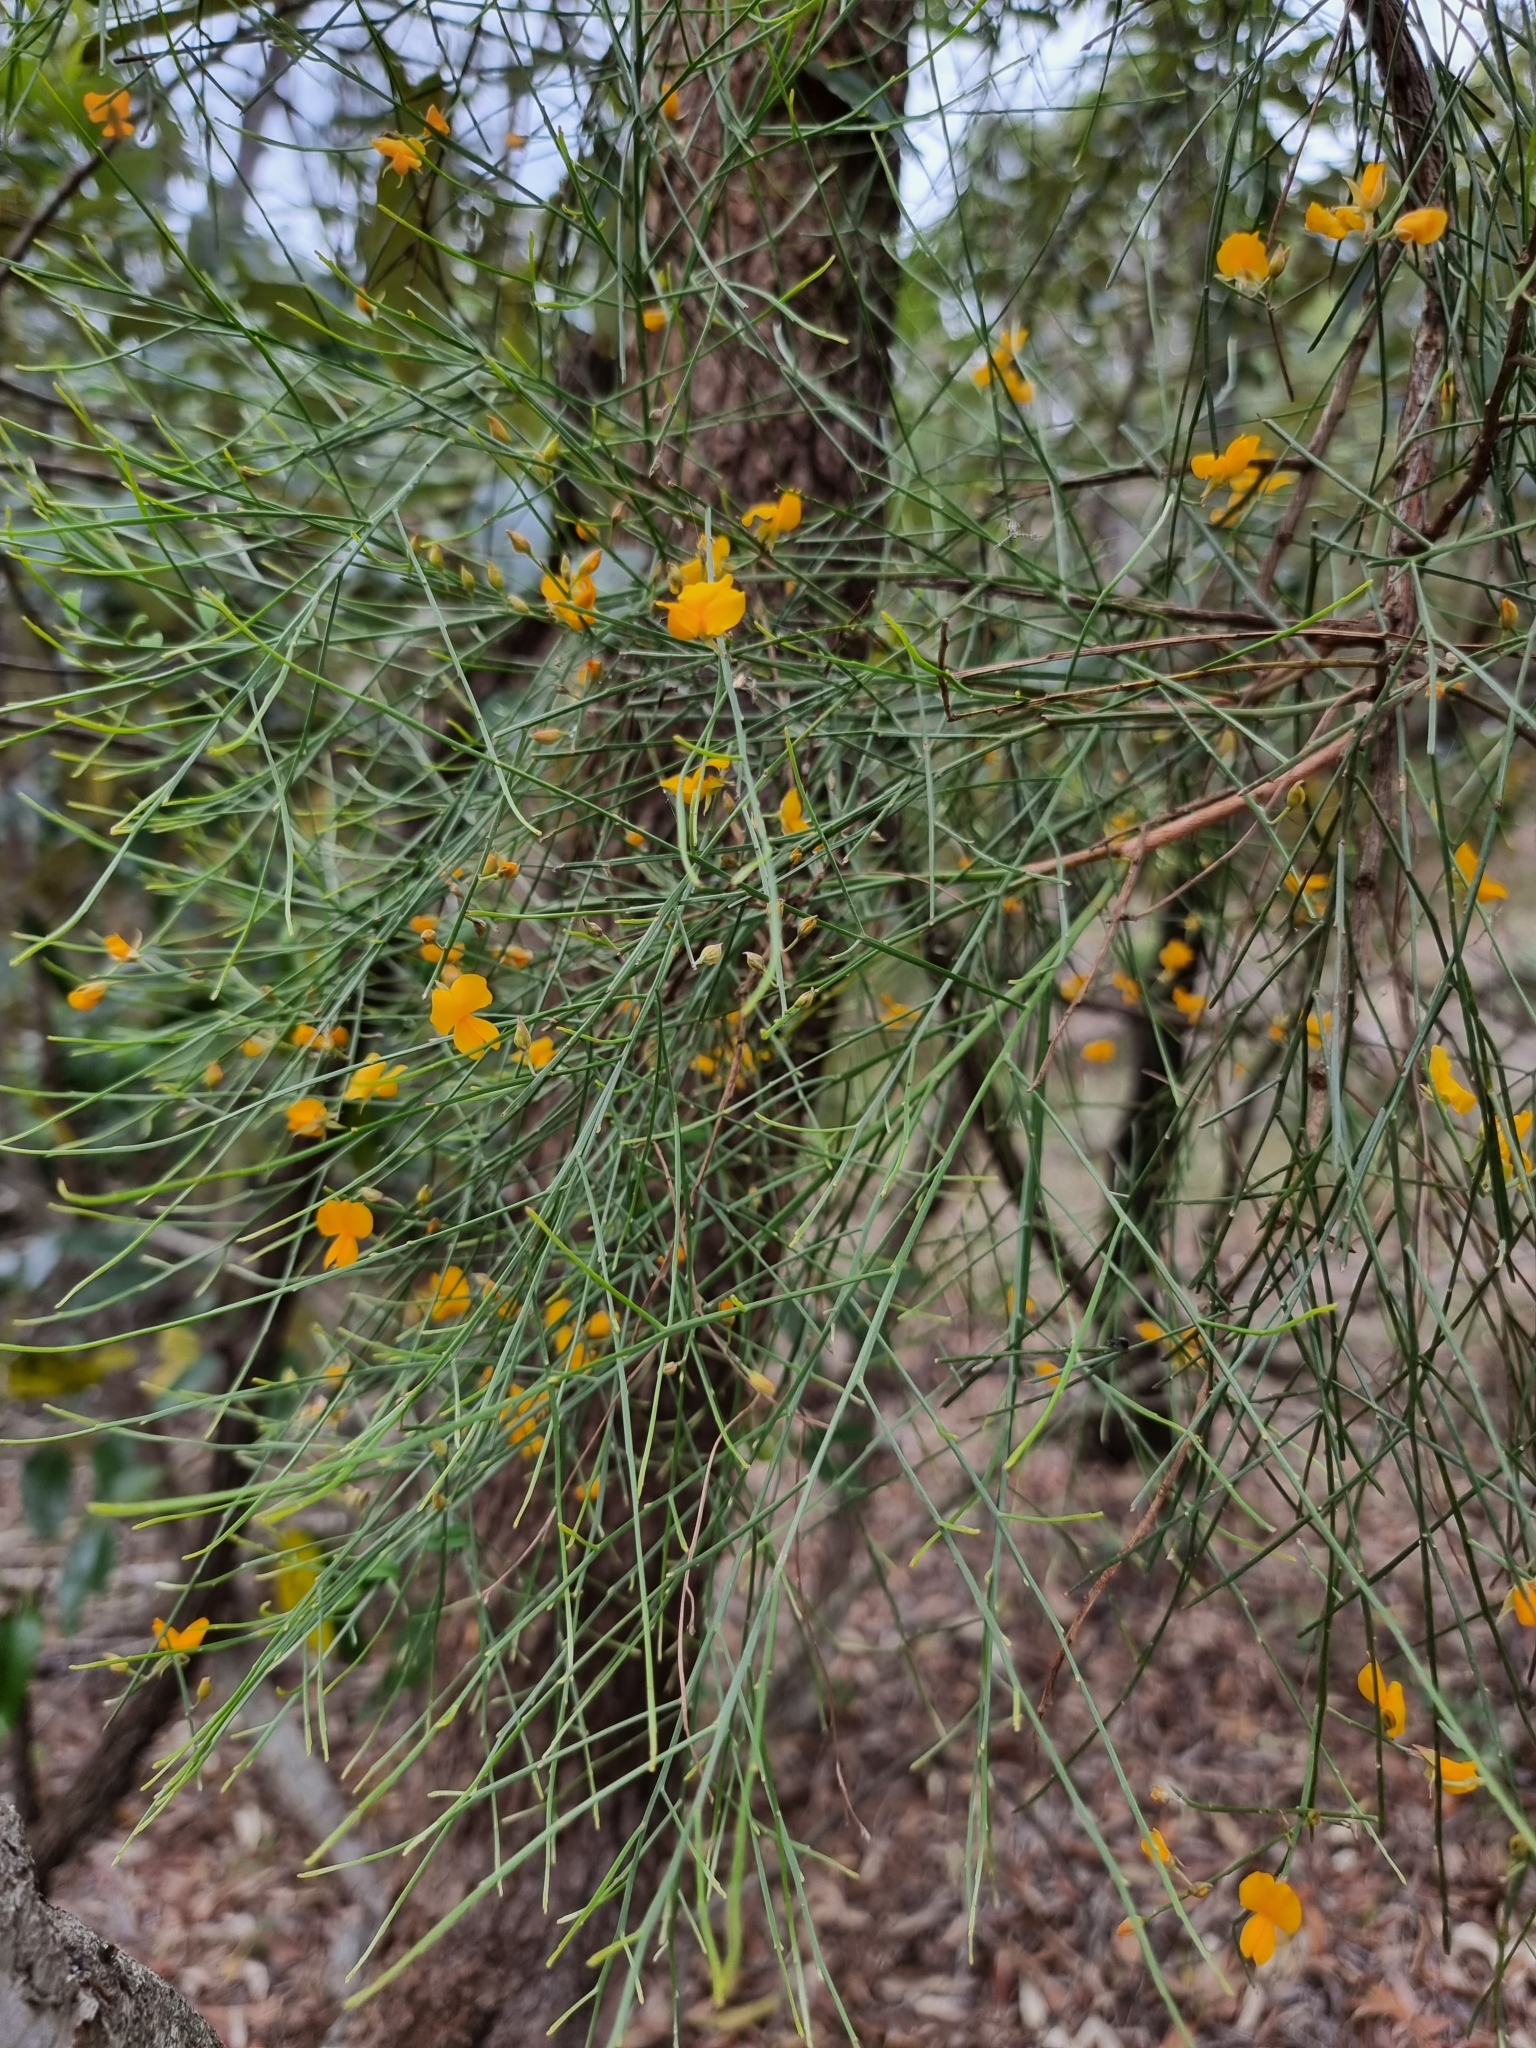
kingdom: Plantae
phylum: Tracheophyta
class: Magnoliopsida
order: Fabales
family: Fabaceae
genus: Jacksonia
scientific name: Jacksonia scoparia
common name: Dogwood
